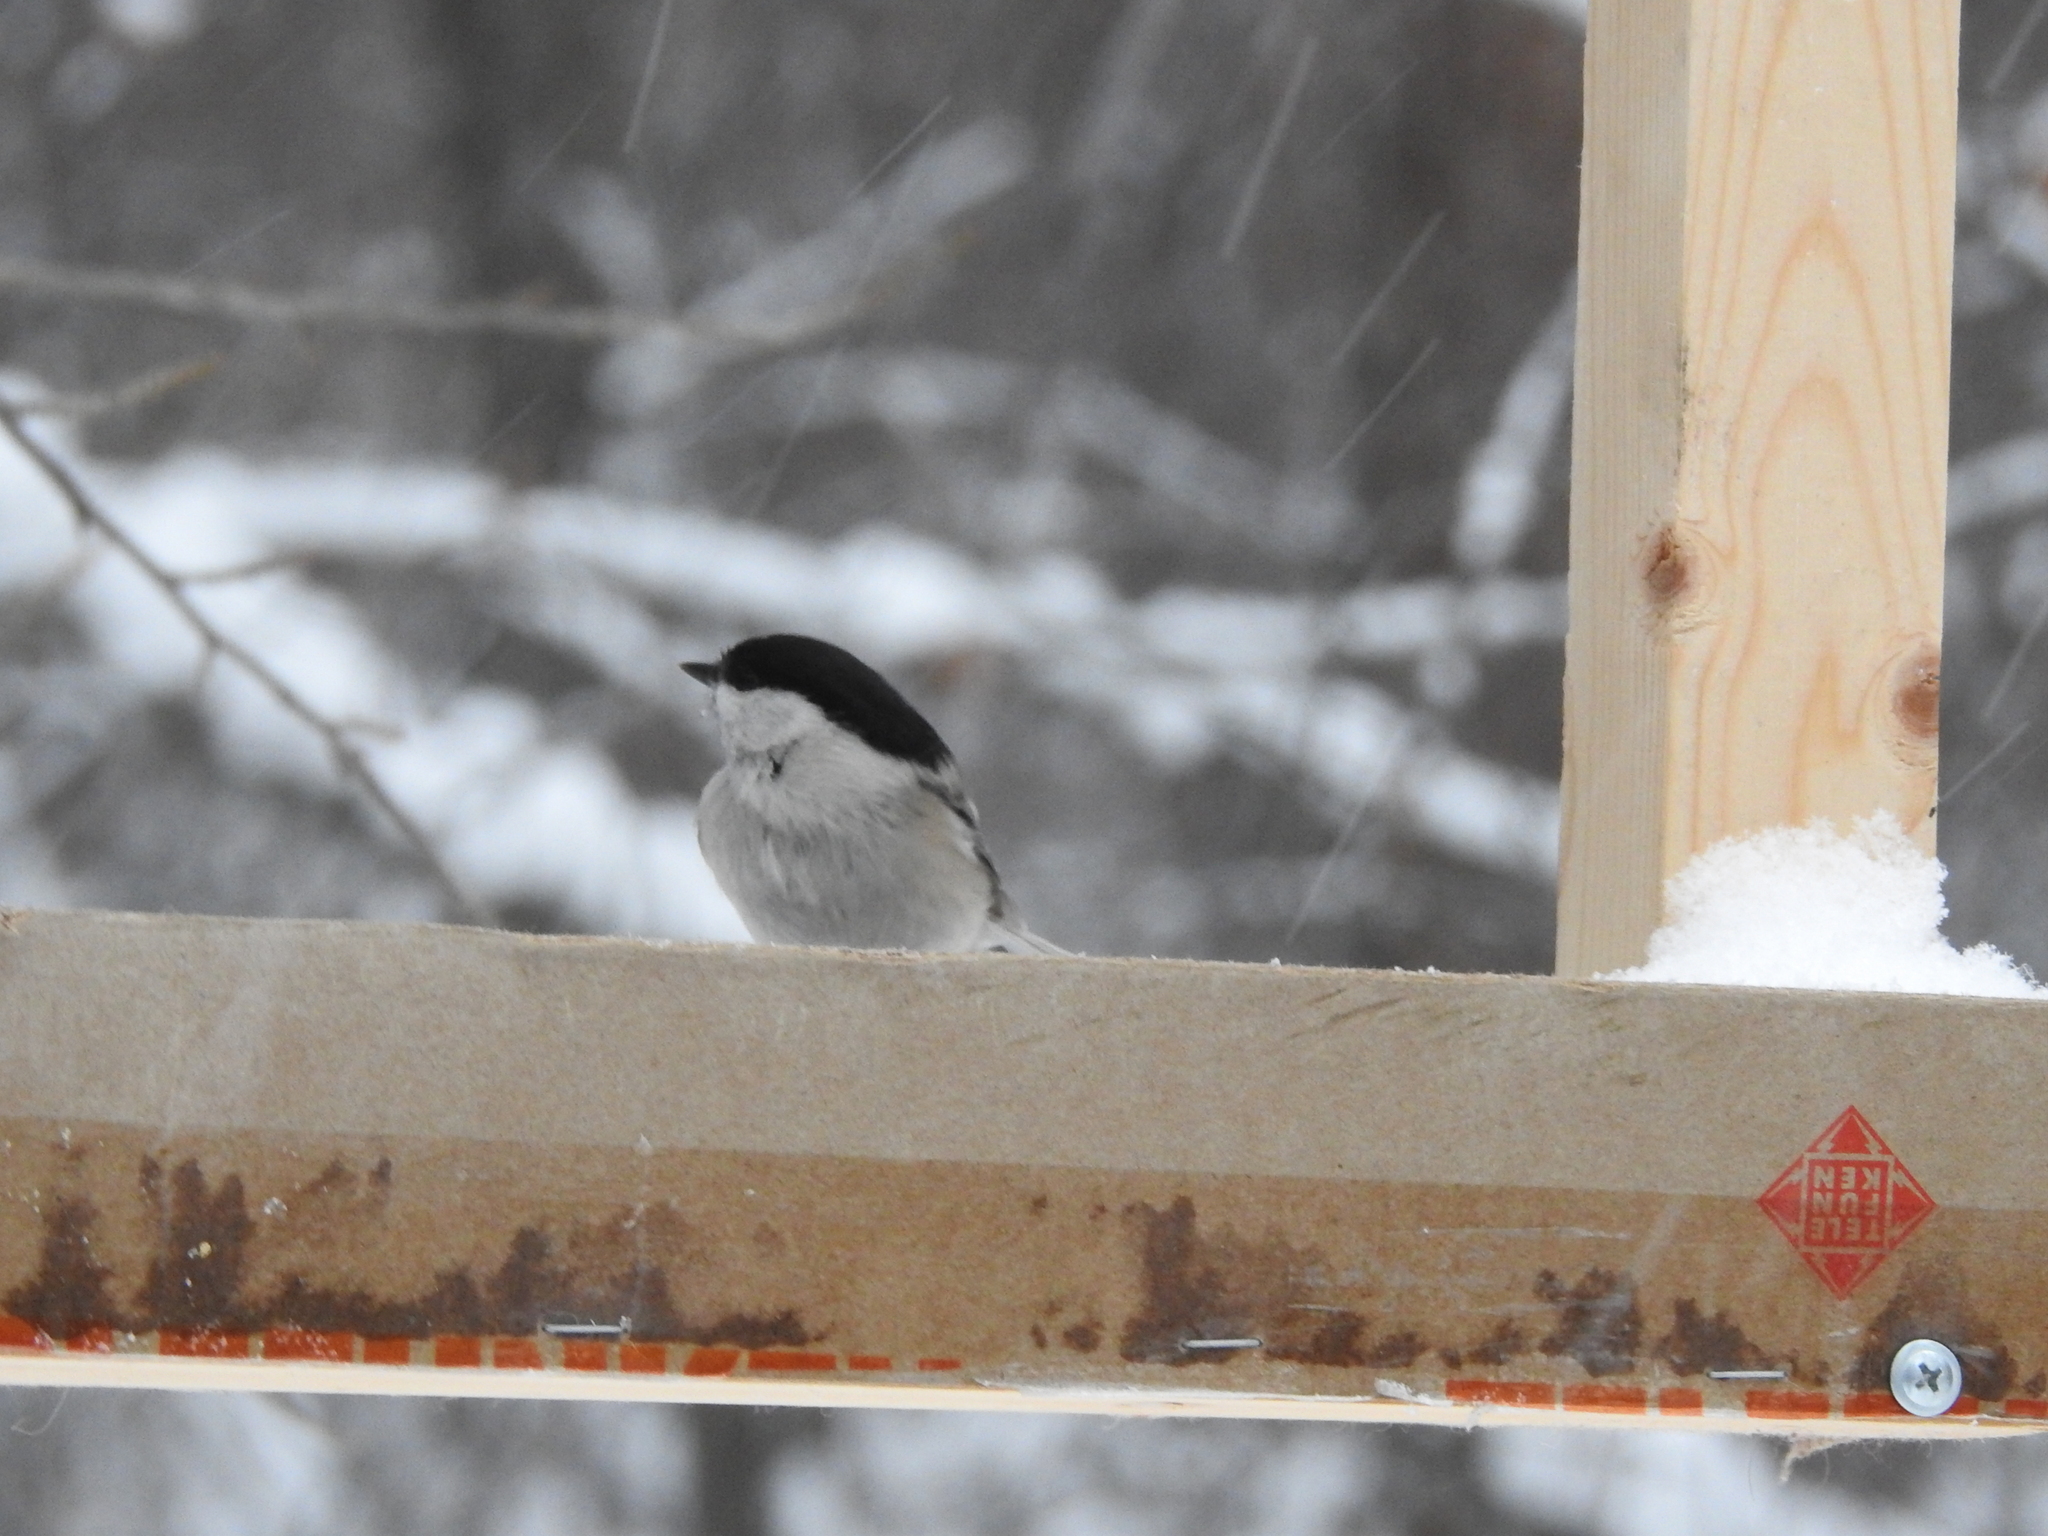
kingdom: Animalia
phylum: Chordata
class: Aves
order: Passeriformes
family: Paridae
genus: Poecile
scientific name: Poecile montanus
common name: Willow tit
